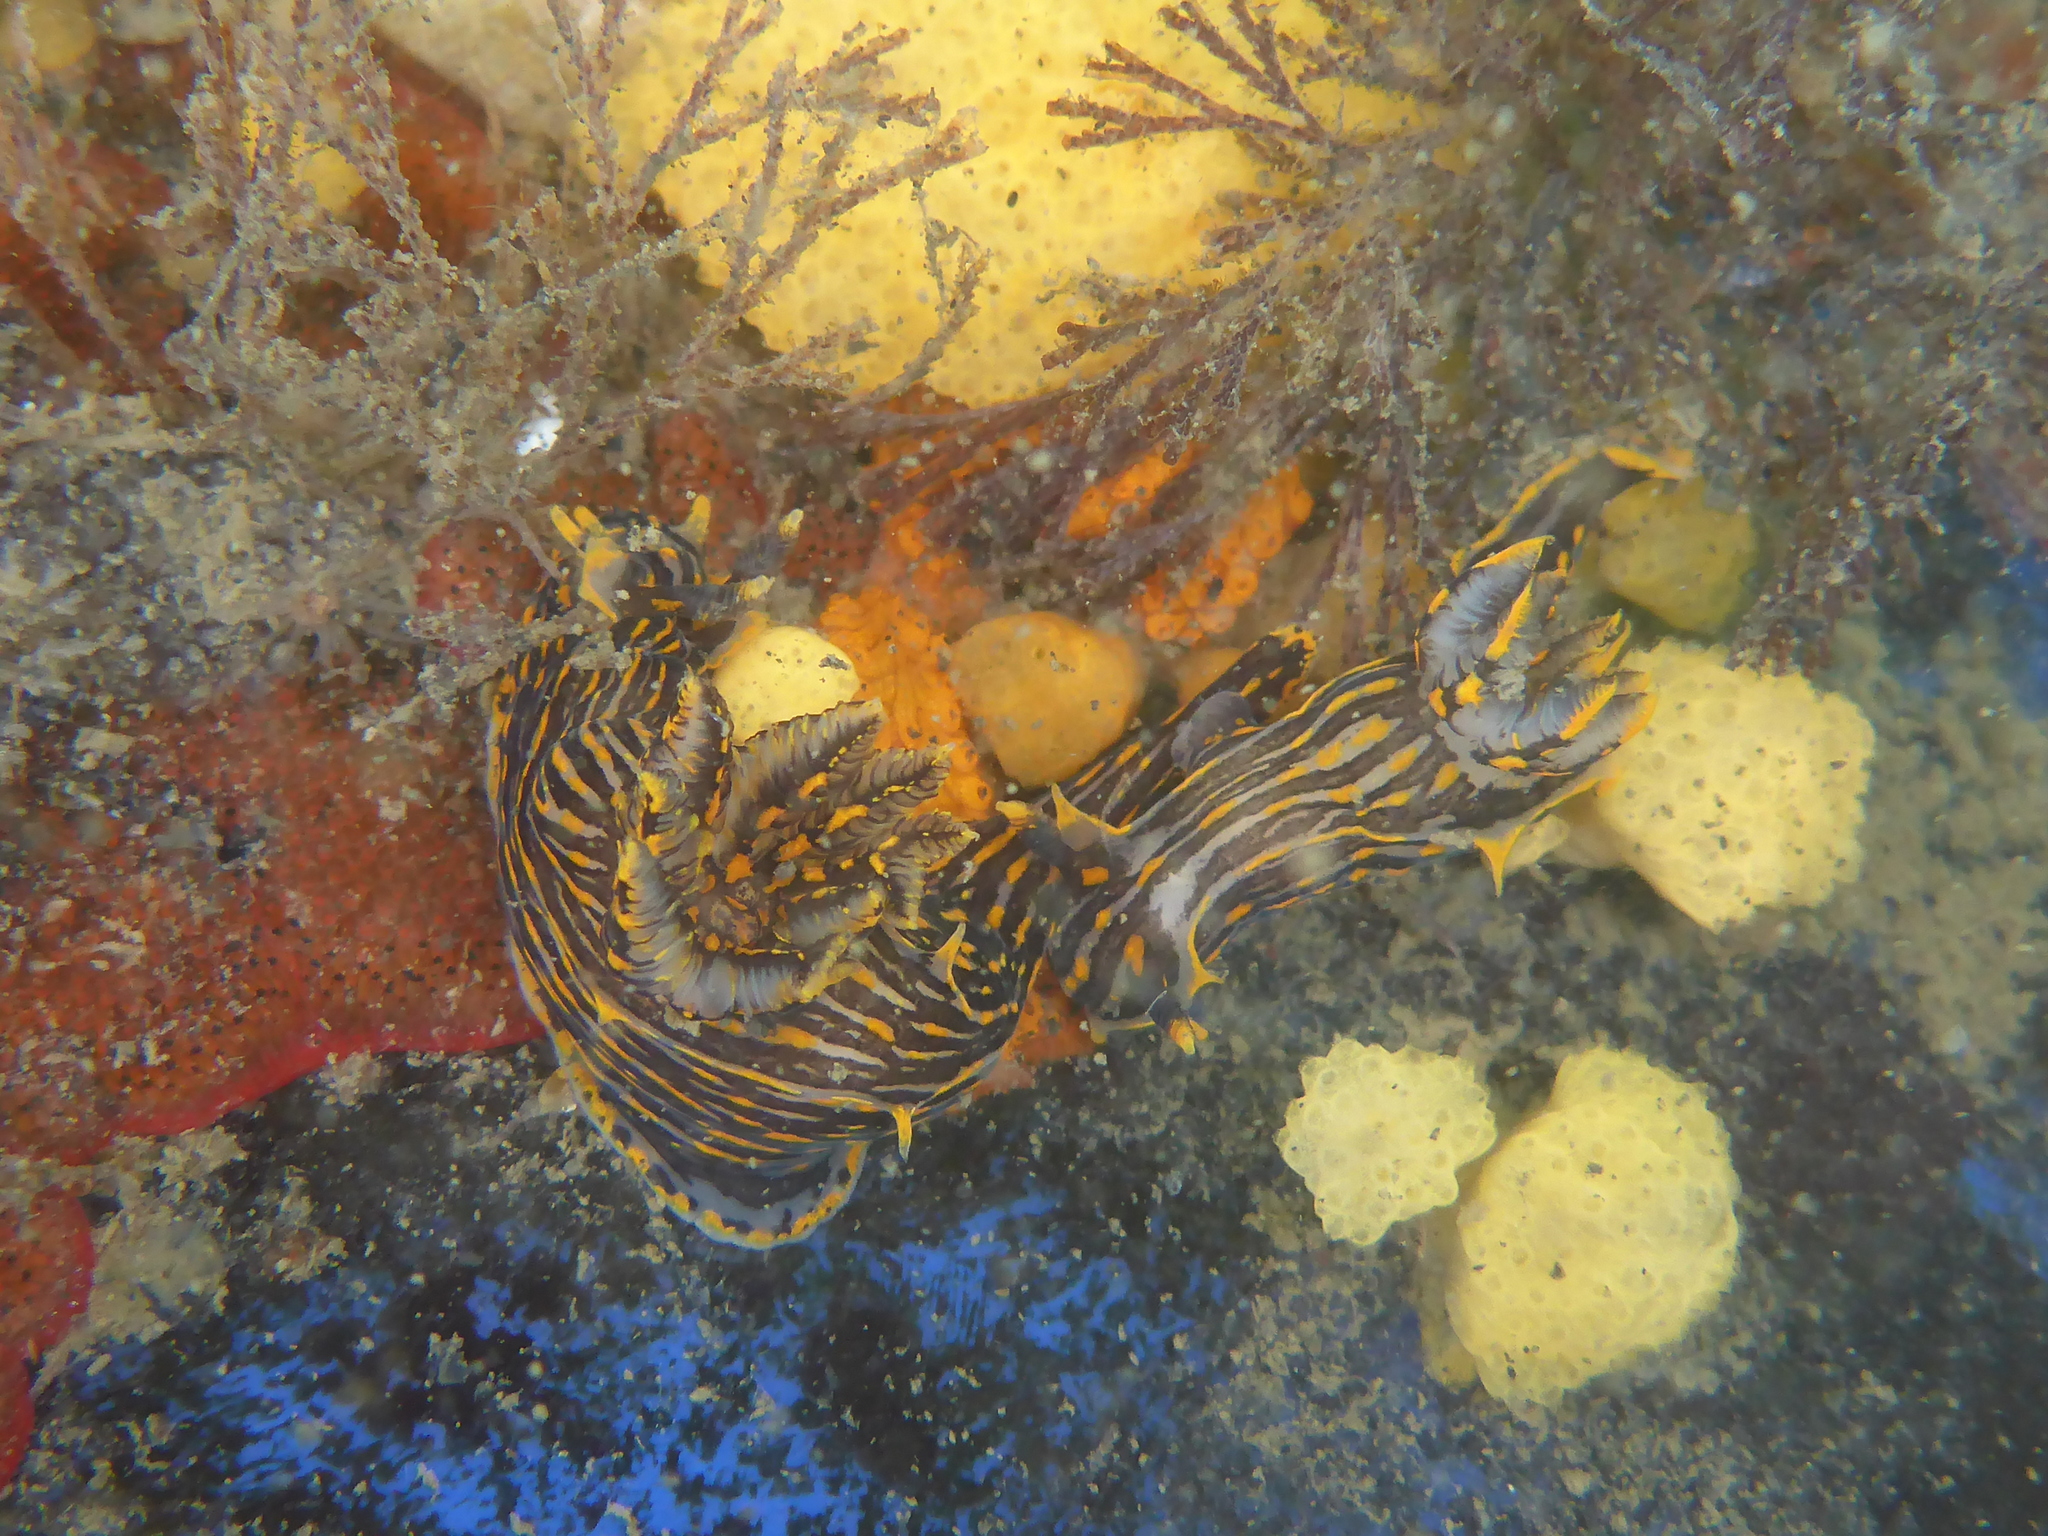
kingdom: Animalia
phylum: Mollusca
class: Gastropoda
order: Nudibranchia
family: Polyceridae
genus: Polycera
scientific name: Polycera atra
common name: Orange-spike polycera
